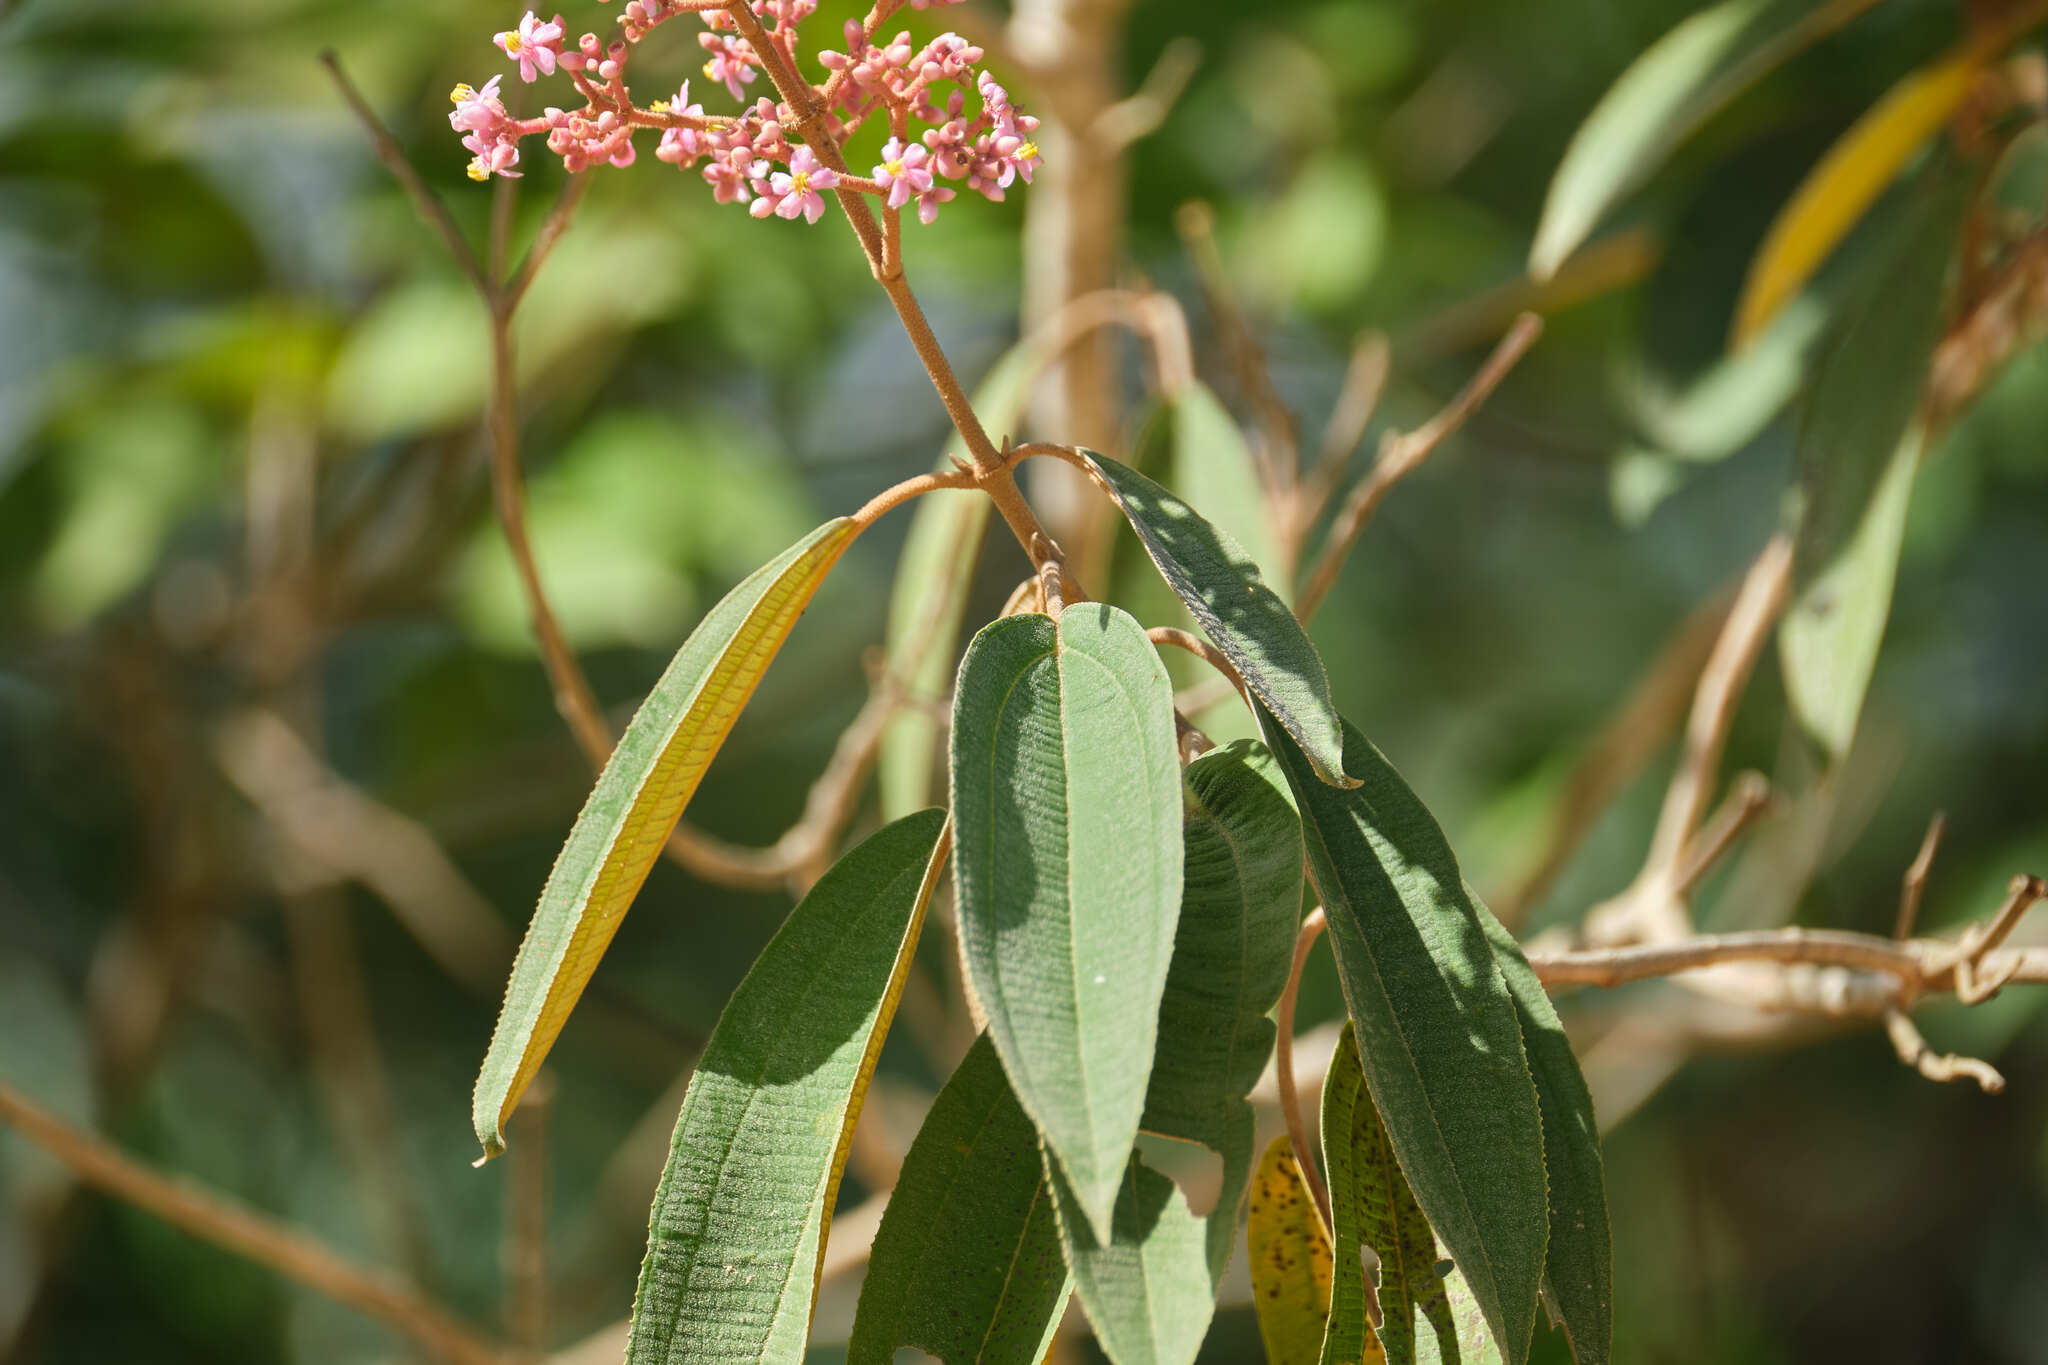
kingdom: Plantae
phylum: Tracheophyta
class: Magnoliopsida
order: Myrtales
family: Melastomataceae
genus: Miconia
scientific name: Miconia xalapensis
